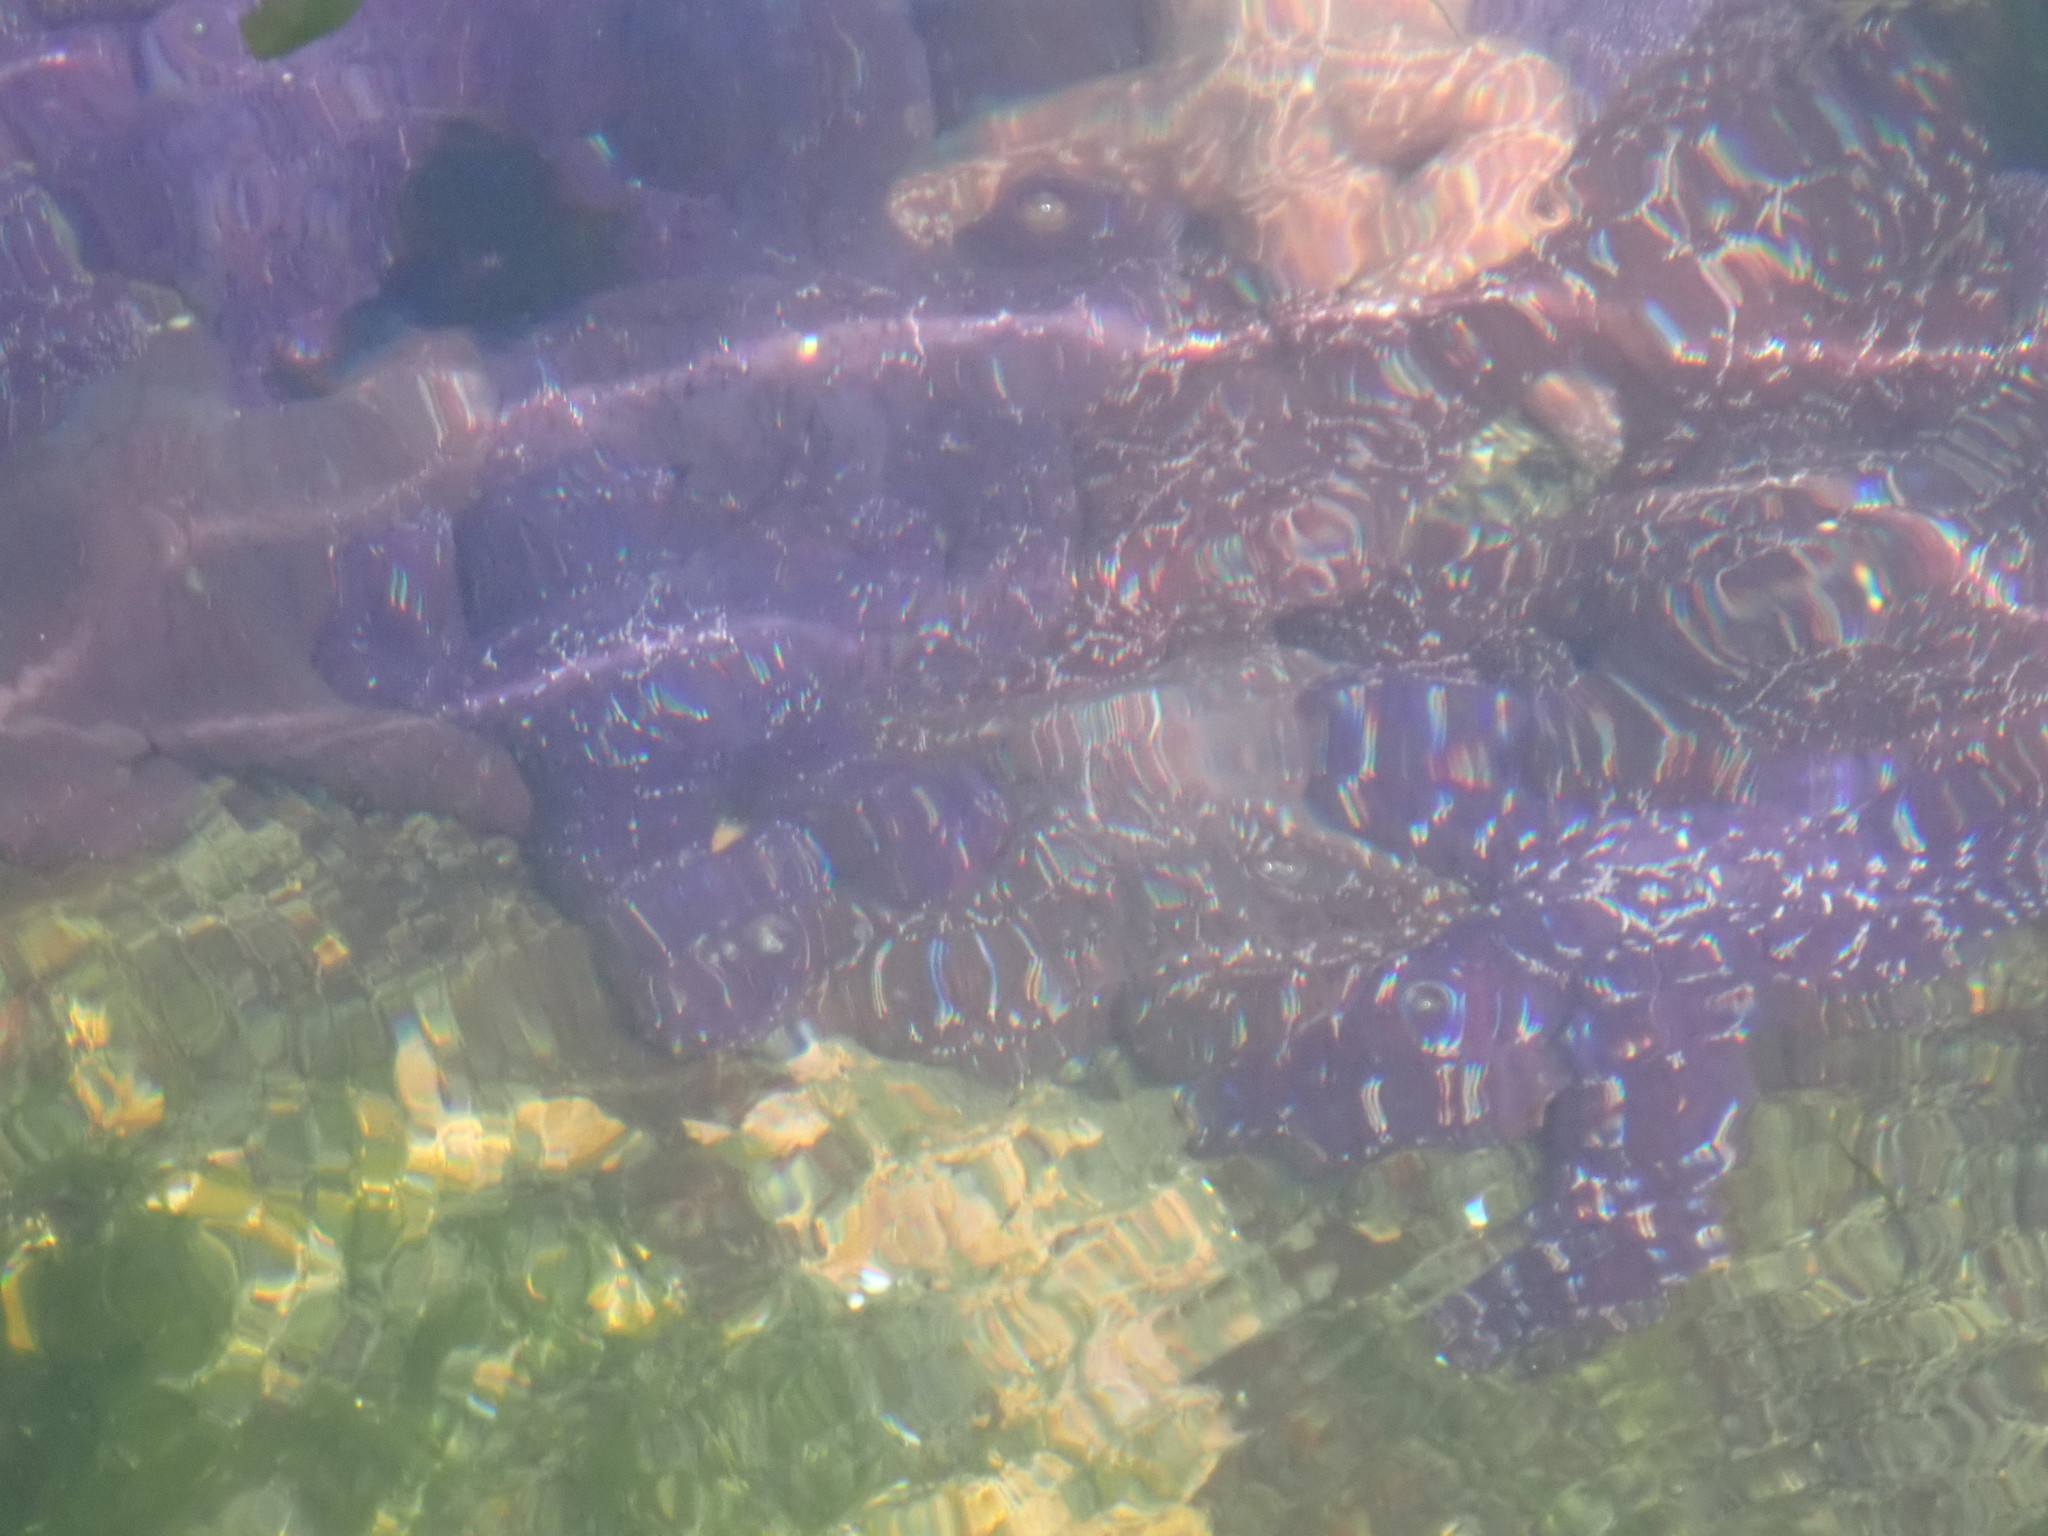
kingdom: Animalia
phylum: Echinodermata
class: Asteroidea
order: Forcipulatida
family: Asteriidae
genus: Pisaster
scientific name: Pisaster ochraceus
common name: Ochre stars
